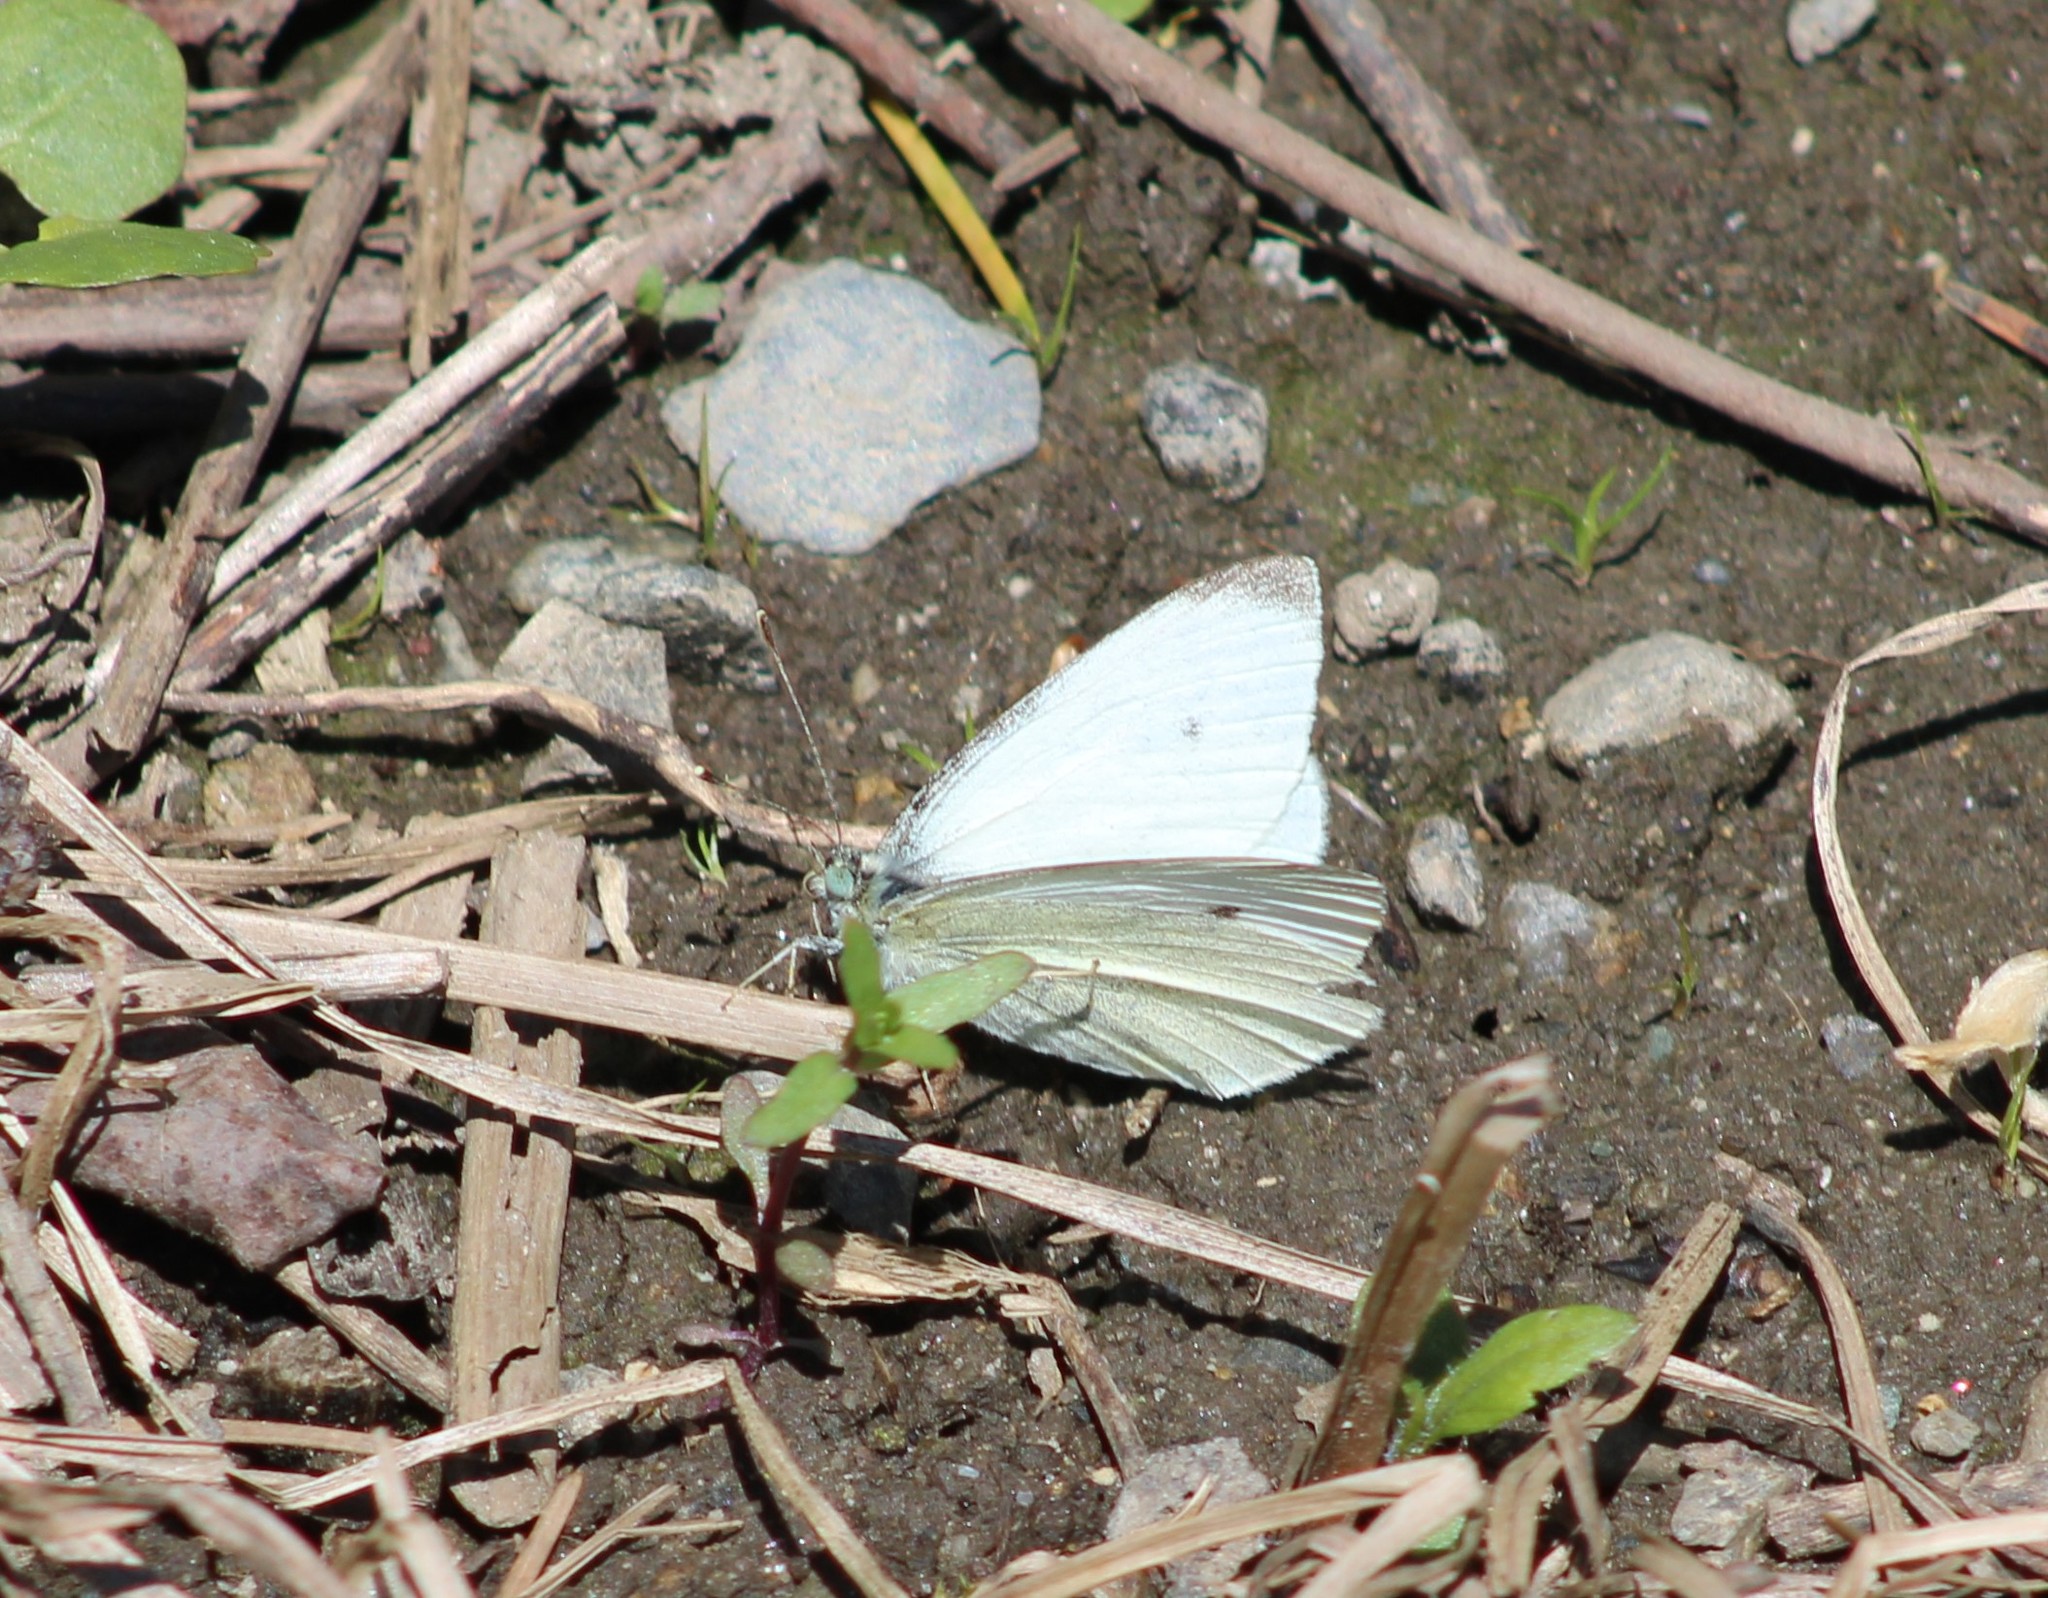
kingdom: Animalia
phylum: Arthropoda
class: Insecta
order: Lepidoptera
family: Pieridae
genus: Pieris
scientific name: Pieris rapae
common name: Small white
